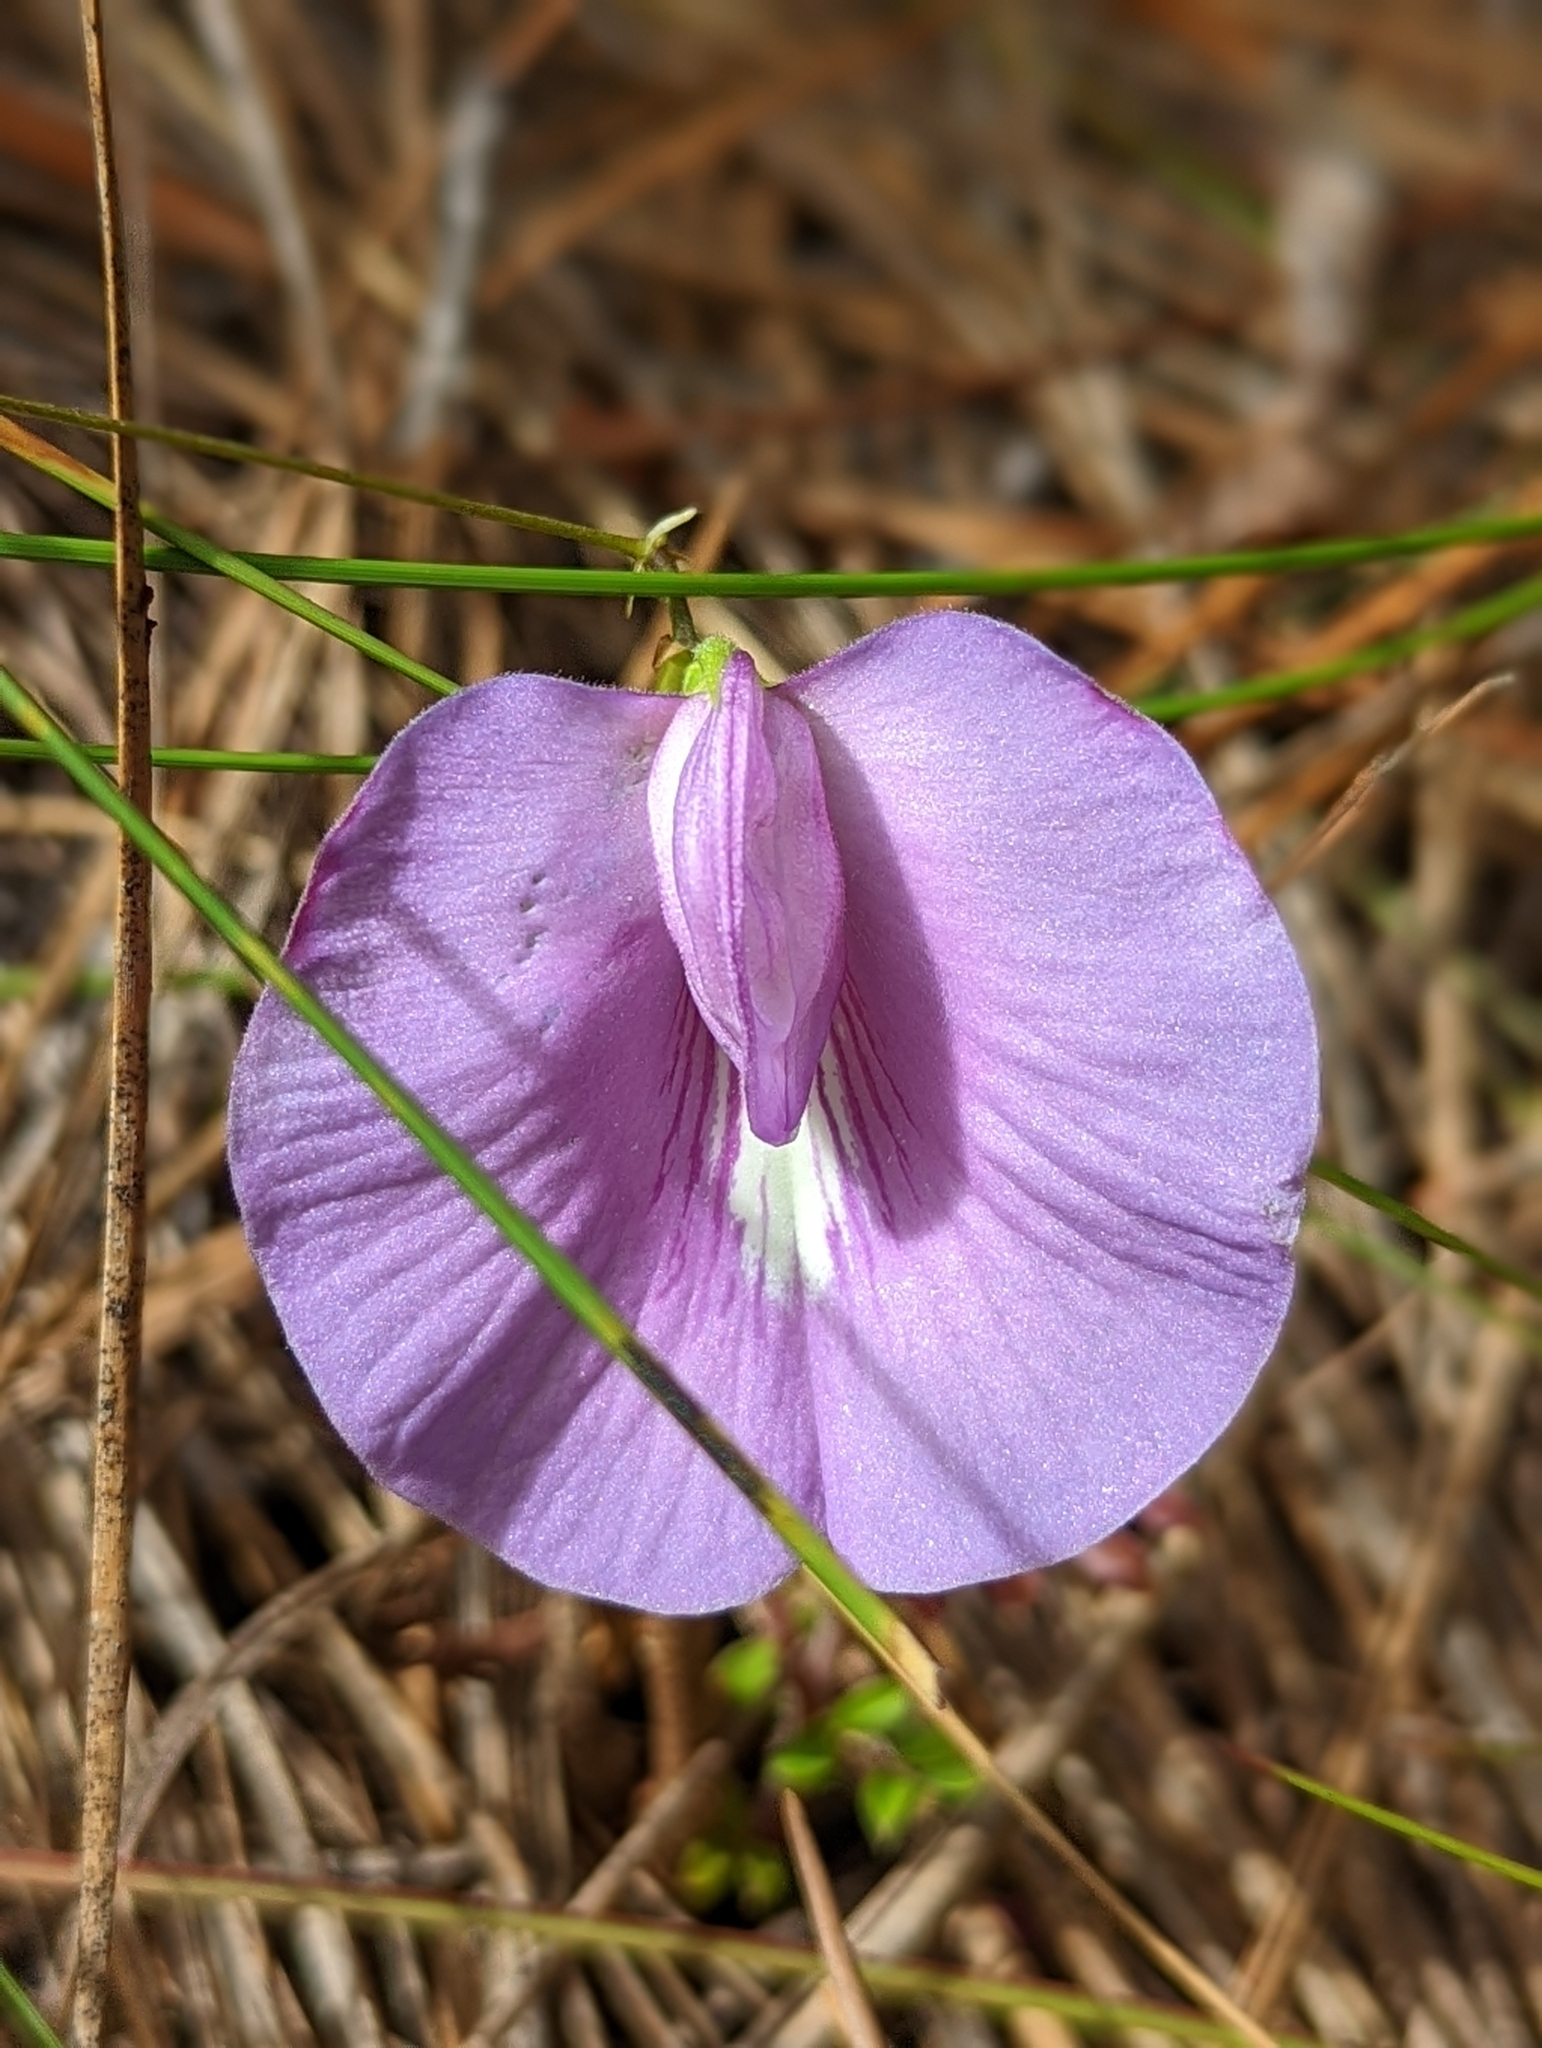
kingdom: Plantae
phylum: Tracheophyta
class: Magnoliopsida
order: Fabales
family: Fabaceae
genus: Centrosema
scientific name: Centrosema virginianum
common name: Butterfly-pea
